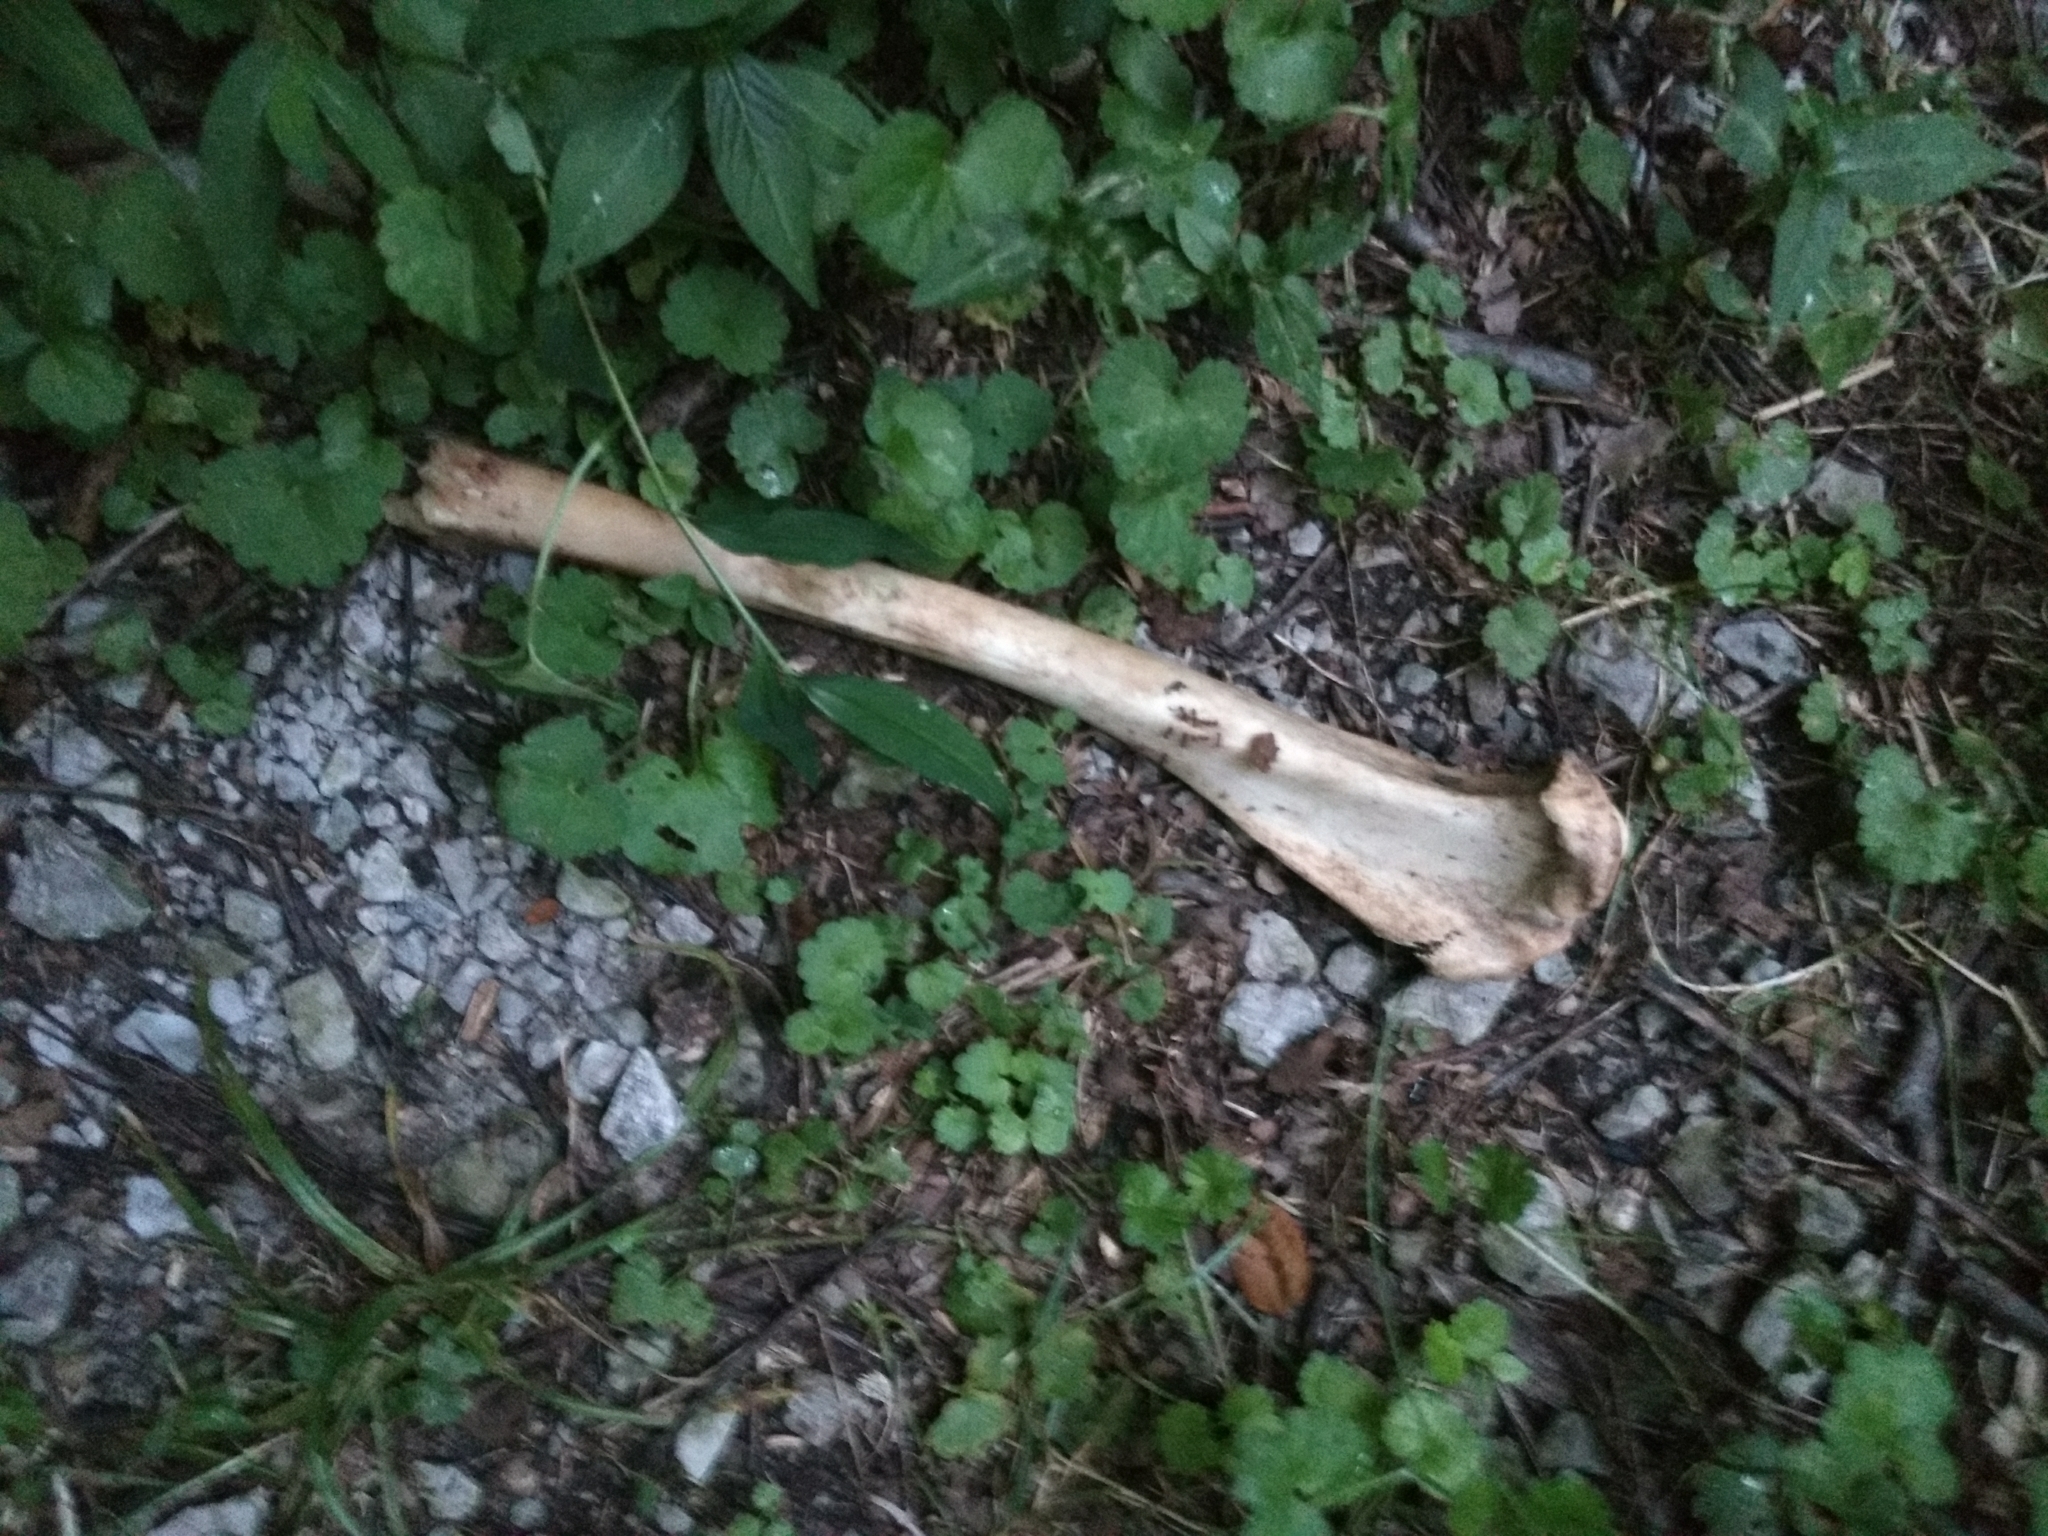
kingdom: Animalia
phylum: Chordata
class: Mammalia
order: Artiodactyla
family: Cervidae
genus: Odocoileus
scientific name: Odocoileus virginianus
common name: White-tailed deer
